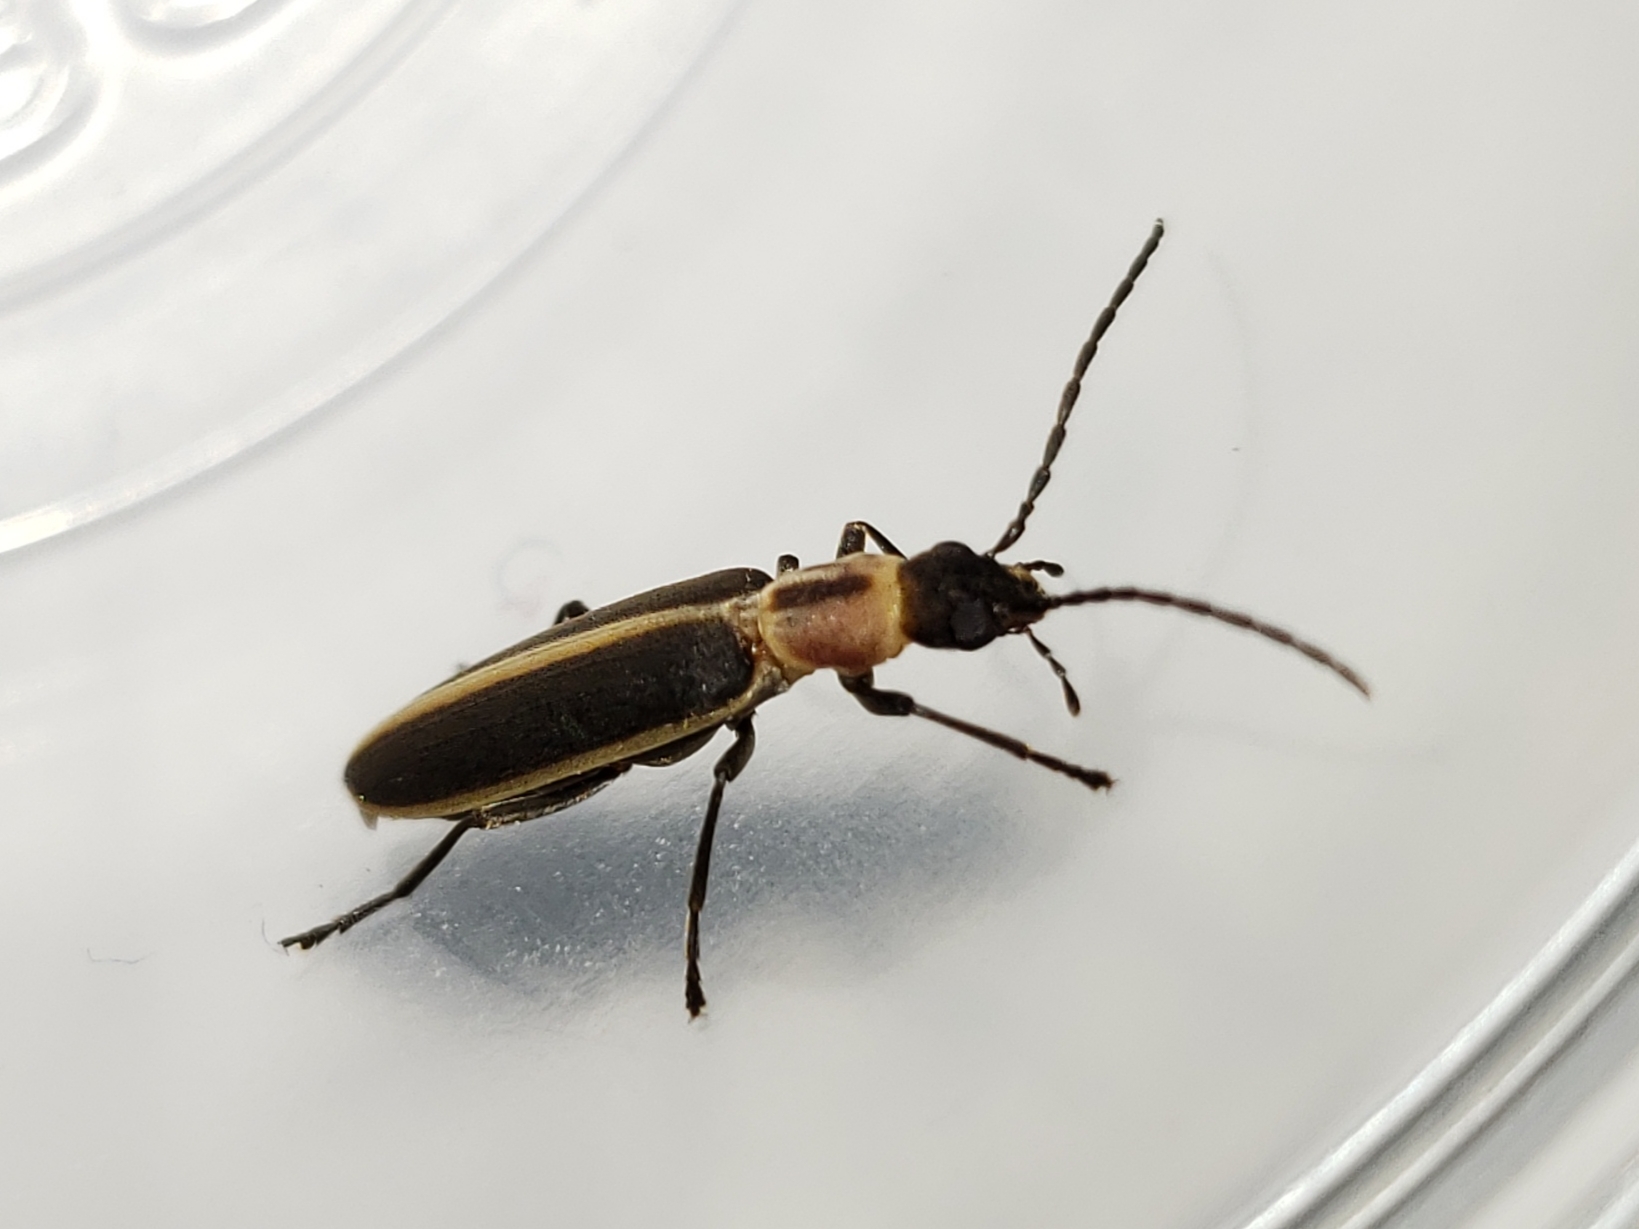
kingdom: Animalia
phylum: Arthropoda
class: Insecta
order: Coleoptera
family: Oedemeridae
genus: Oxycopis
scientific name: Oxycopis mimetica
